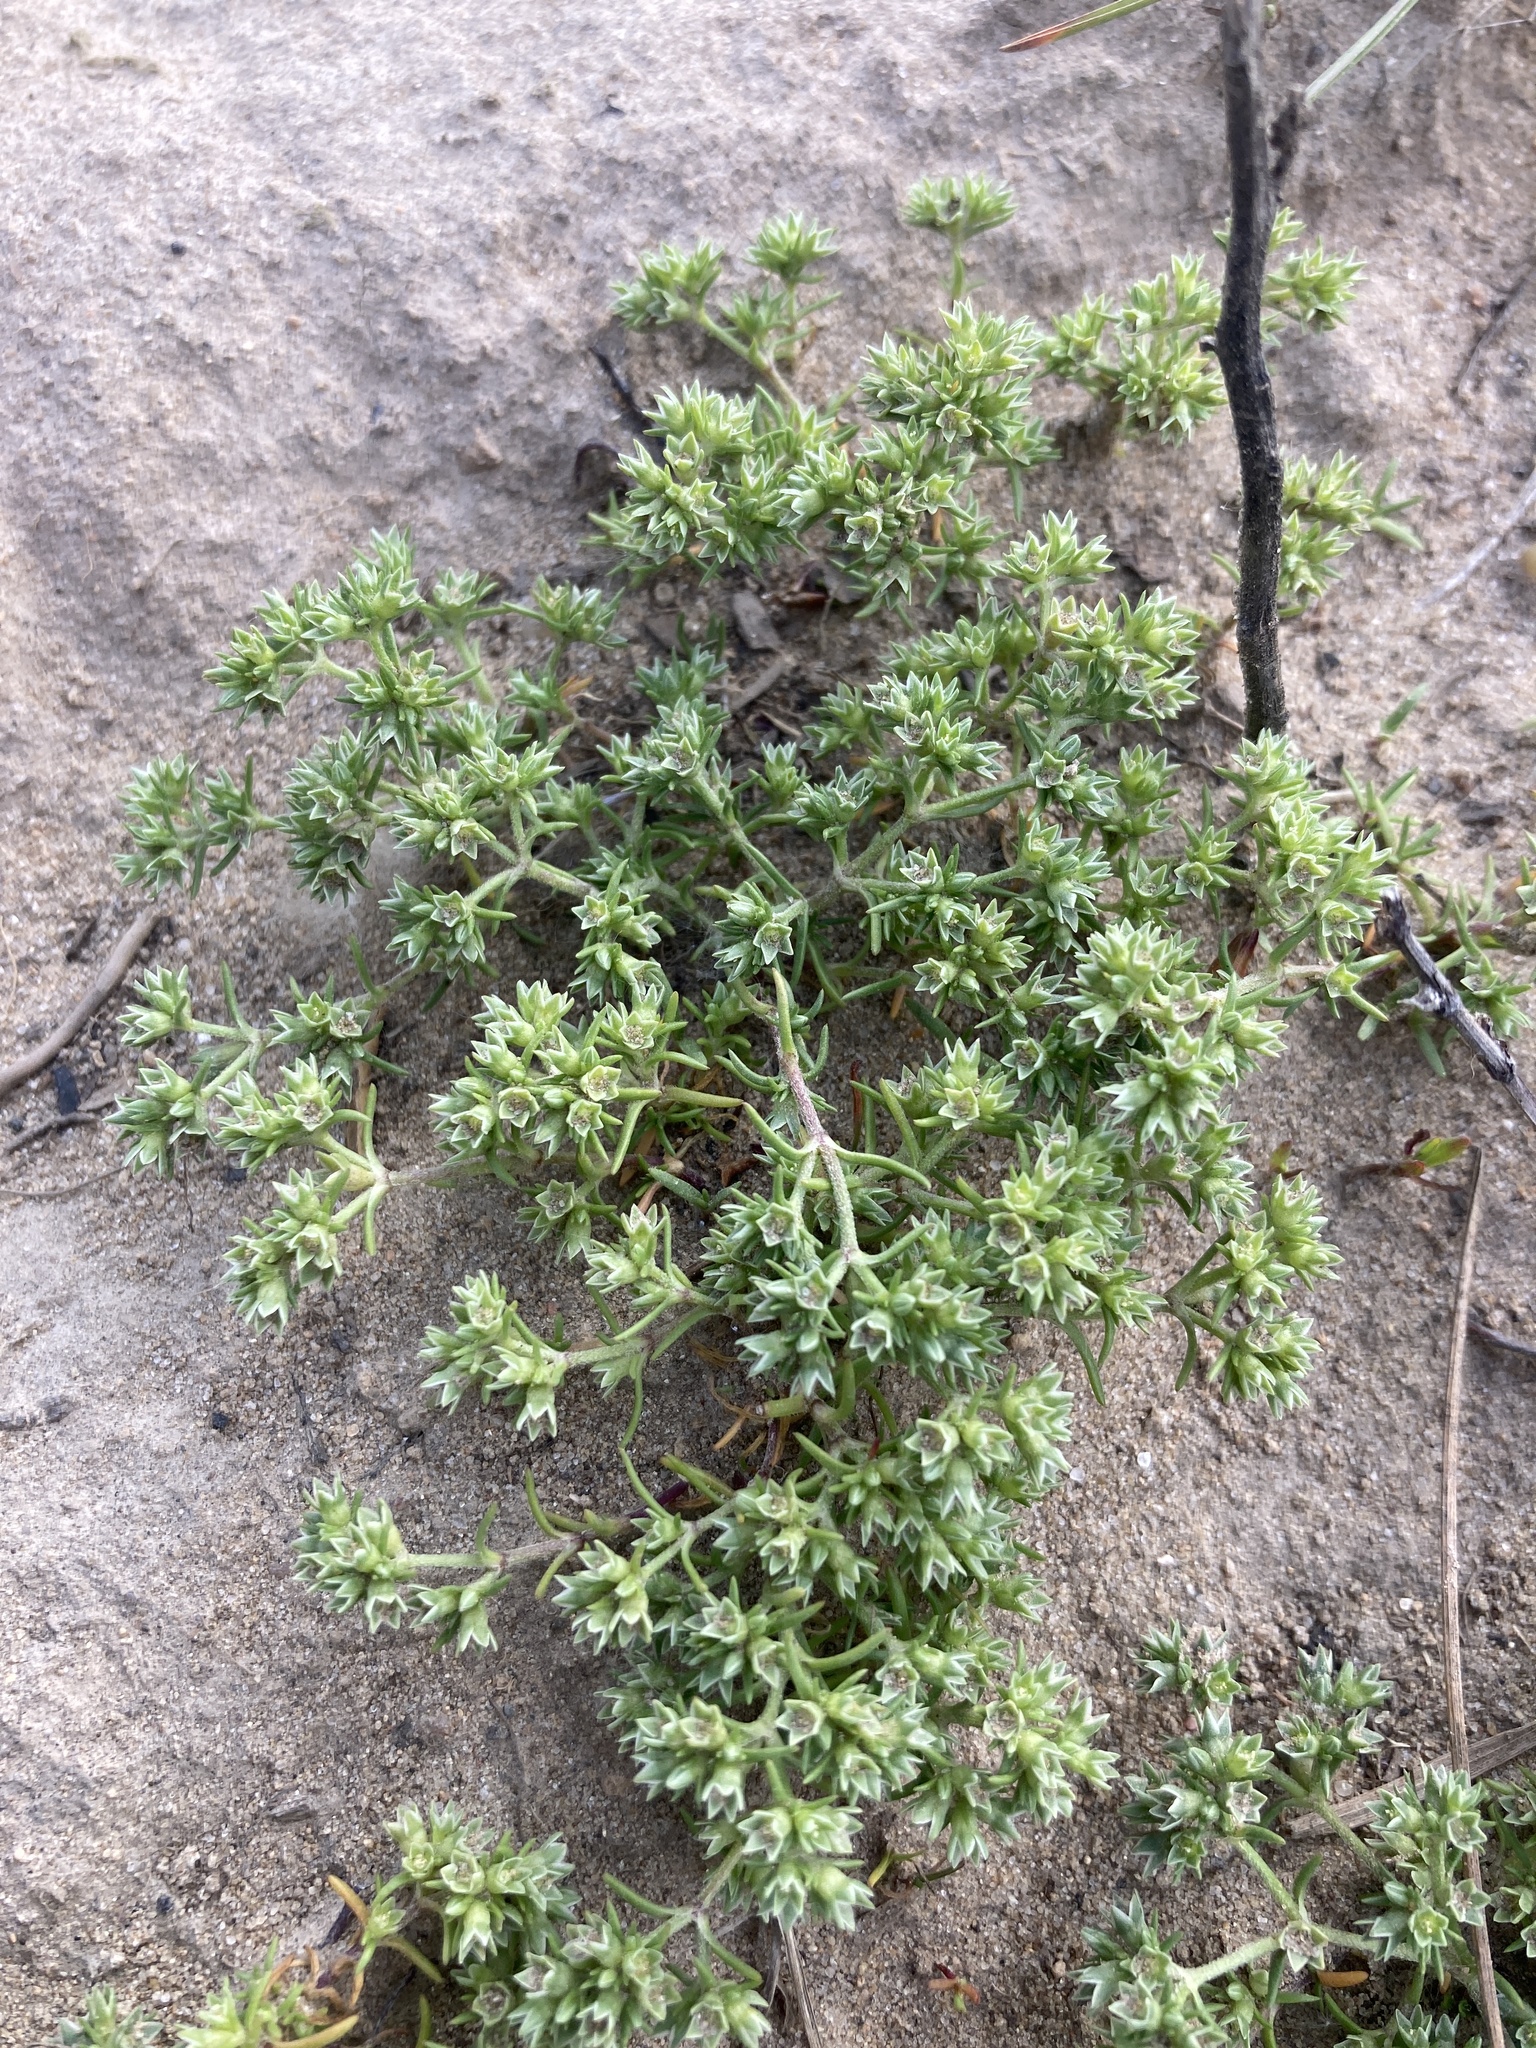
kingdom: Plantae
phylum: Tracheophyta
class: Magnoliopsida
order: Caryophyllales
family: Caryophyllaceae
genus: Scleranthus
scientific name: Scleranthus annuus
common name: Annual knawel
